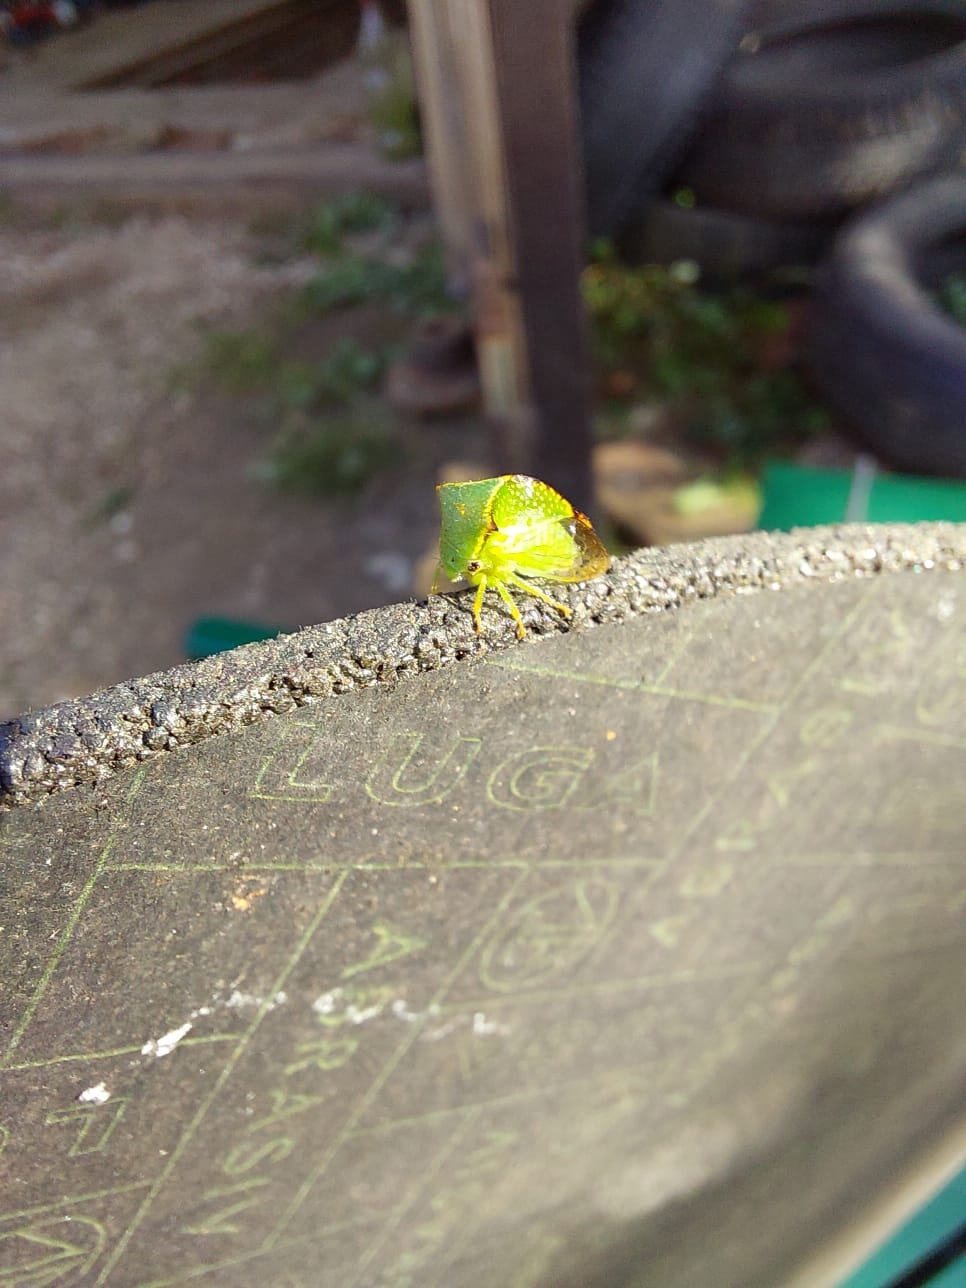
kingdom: Animalia
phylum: Arthropoda
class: Insecta
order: Hemiptera
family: Membracidae
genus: Stictocephala
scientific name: Stictocephala bisonia
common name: American buffalo treehopper
